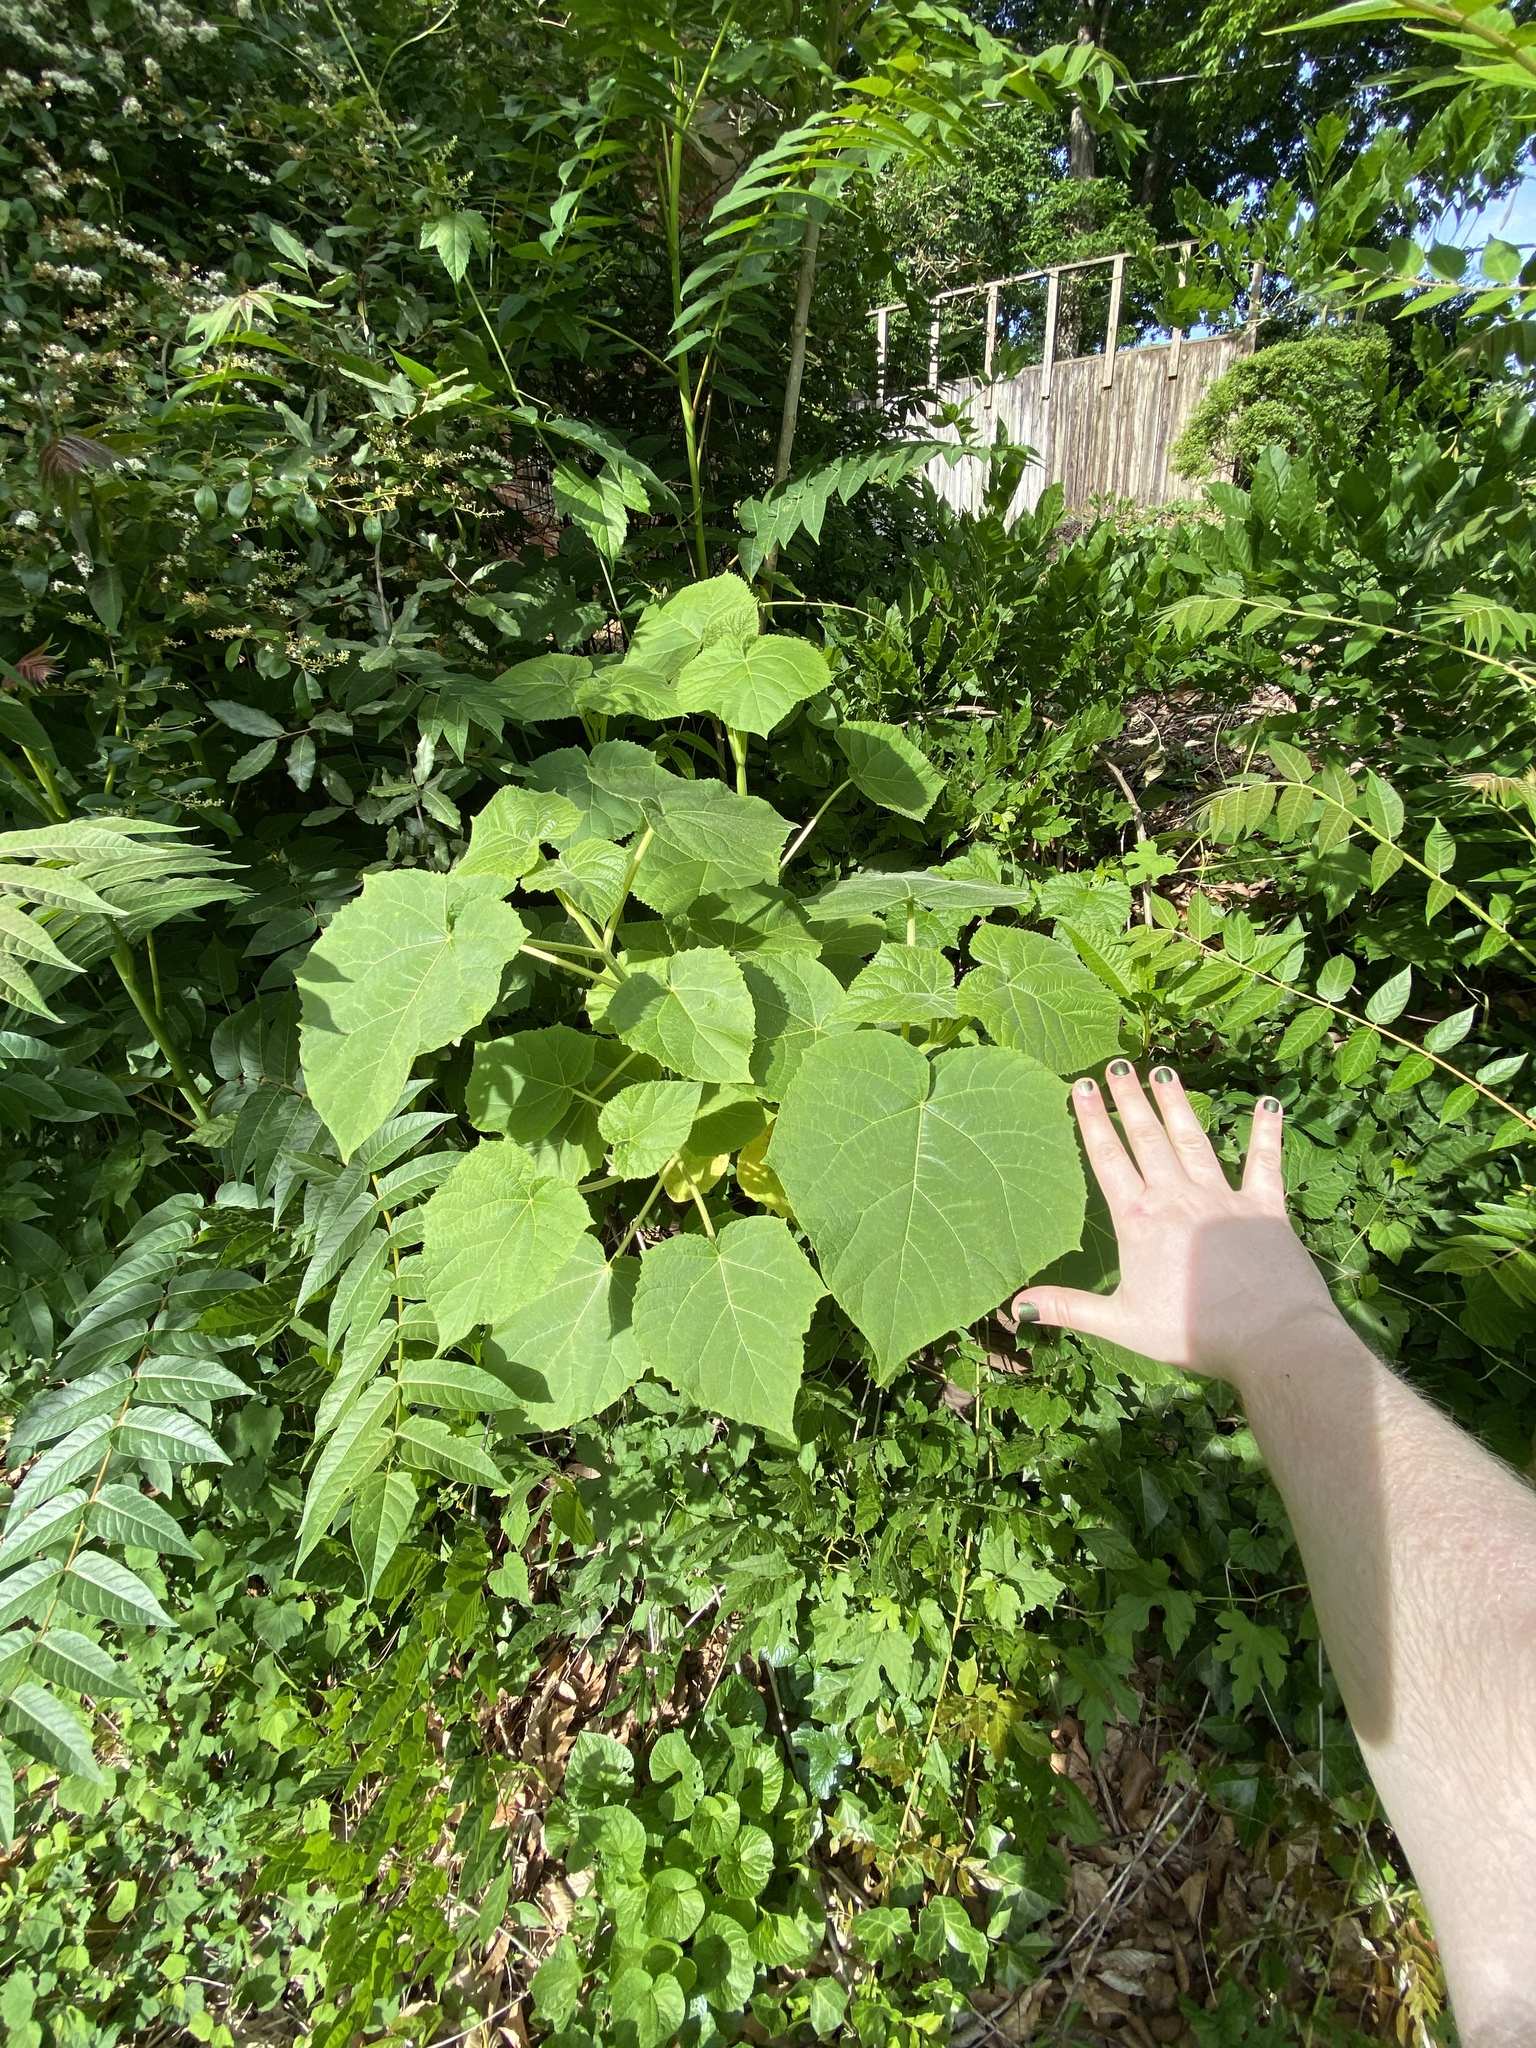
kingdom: Plantae
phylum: Tracheophyta
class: Magnoliopsida
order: Lamiales
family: Paulowniaceae
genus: Paulownia
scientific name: Paulownia tomentosa
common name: Foxglove-tree
